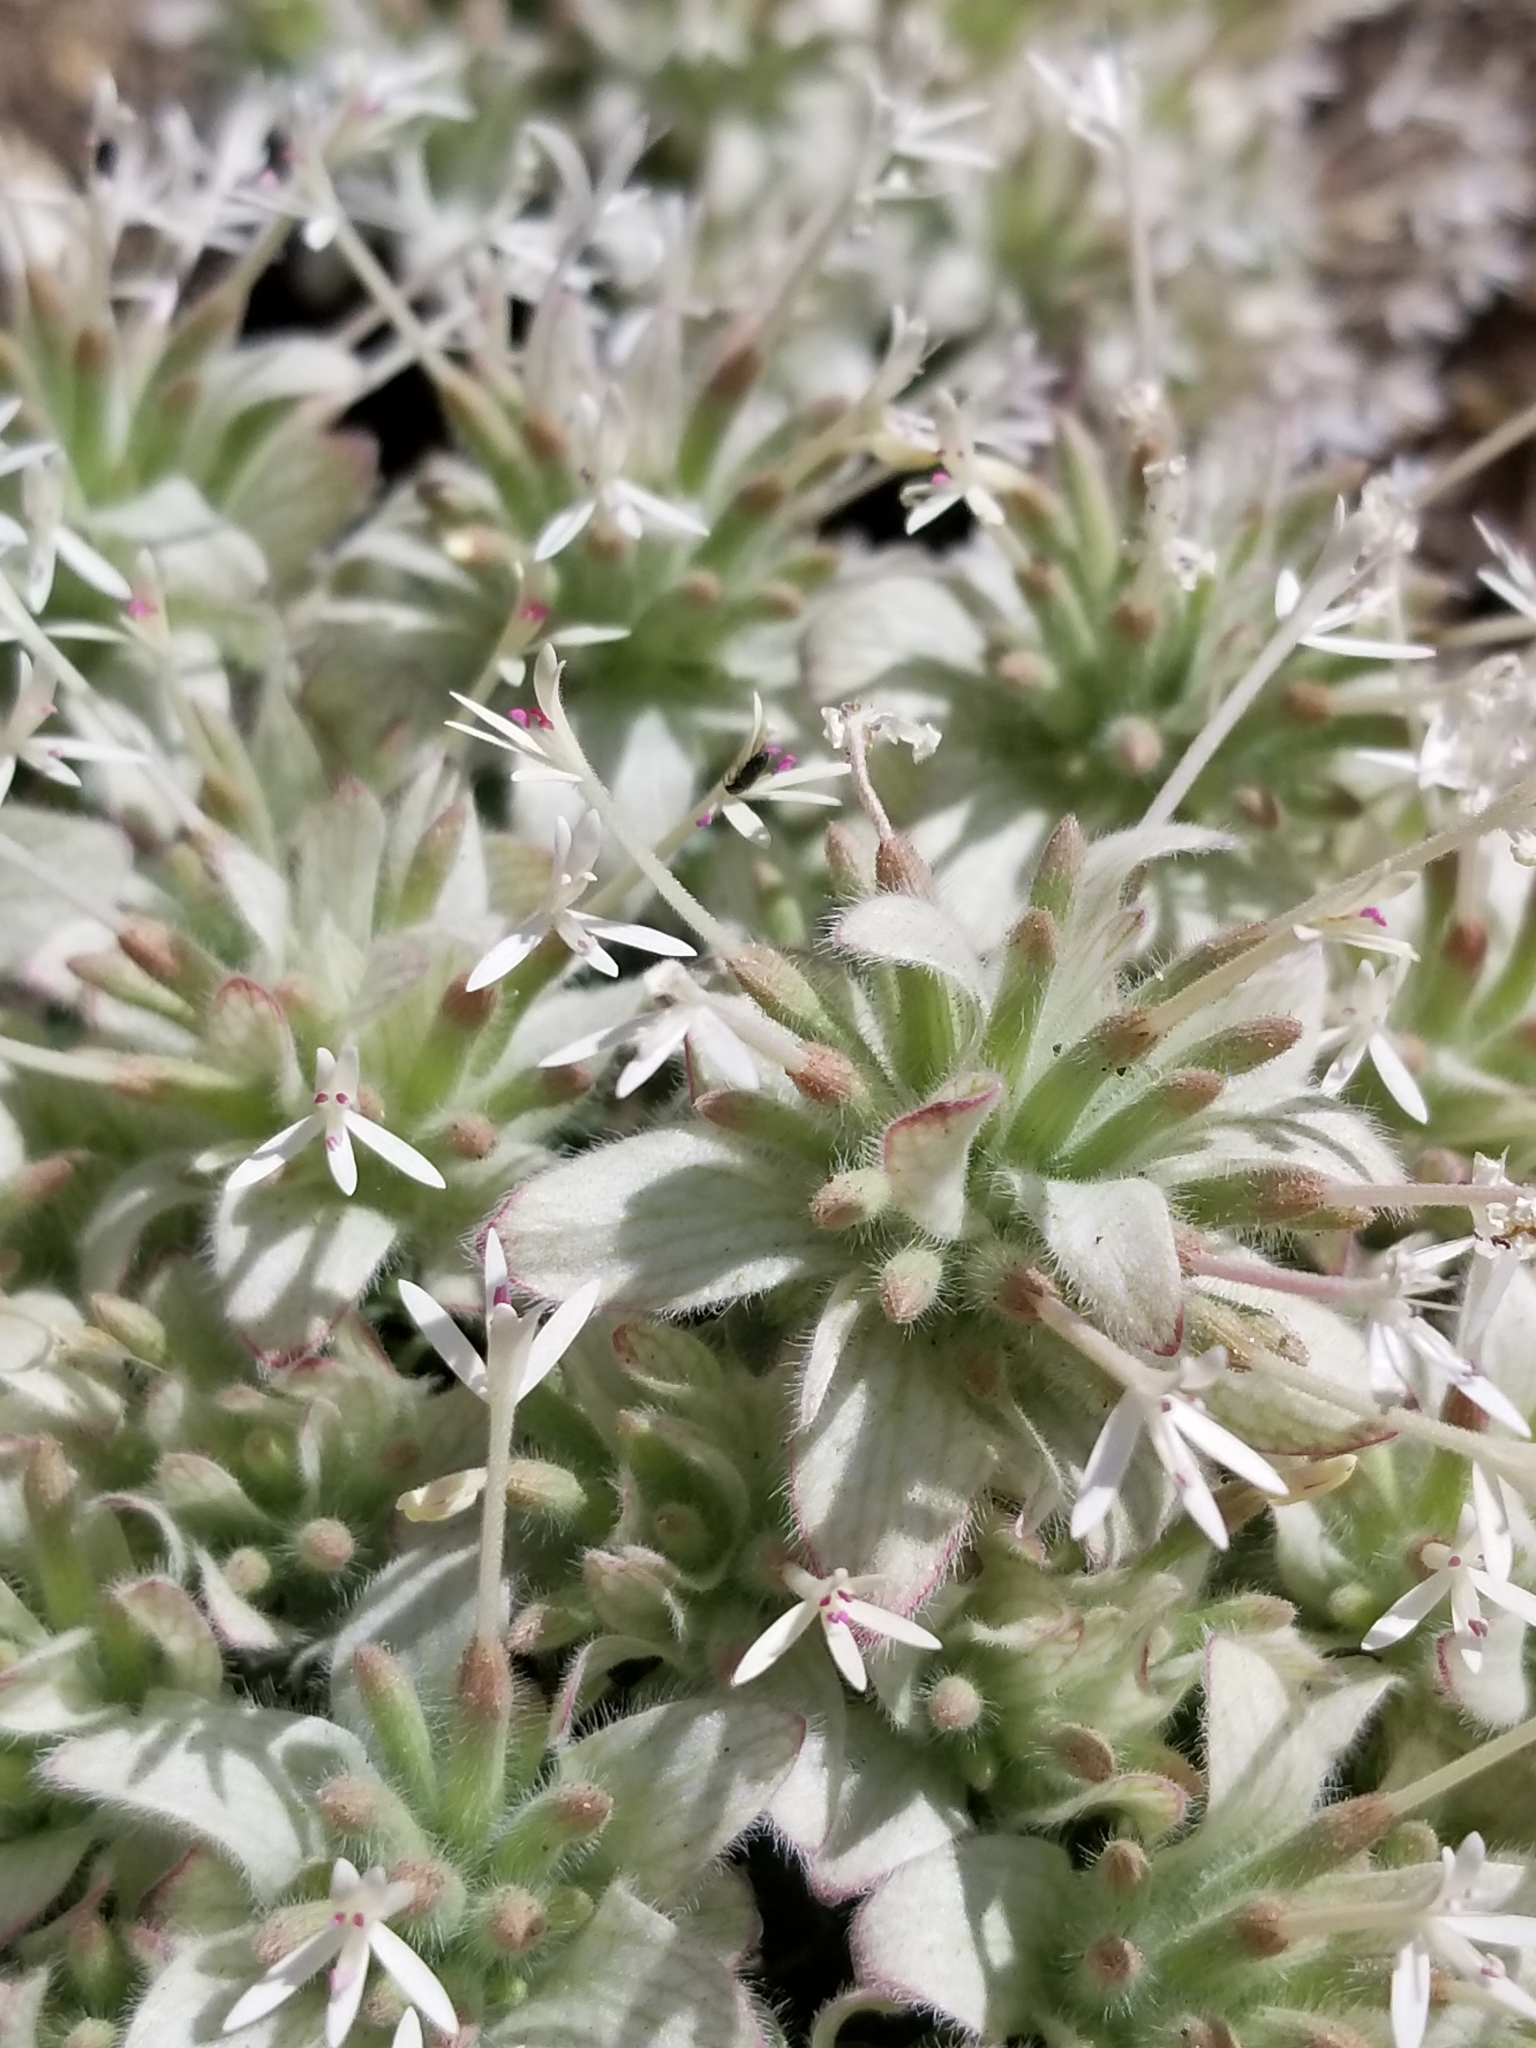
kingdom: Plantae
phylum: Tracheophyta
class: Magnoliopsida
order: Lamiales
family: Lamiaceae
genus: Monardella
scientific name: Monardella nana
